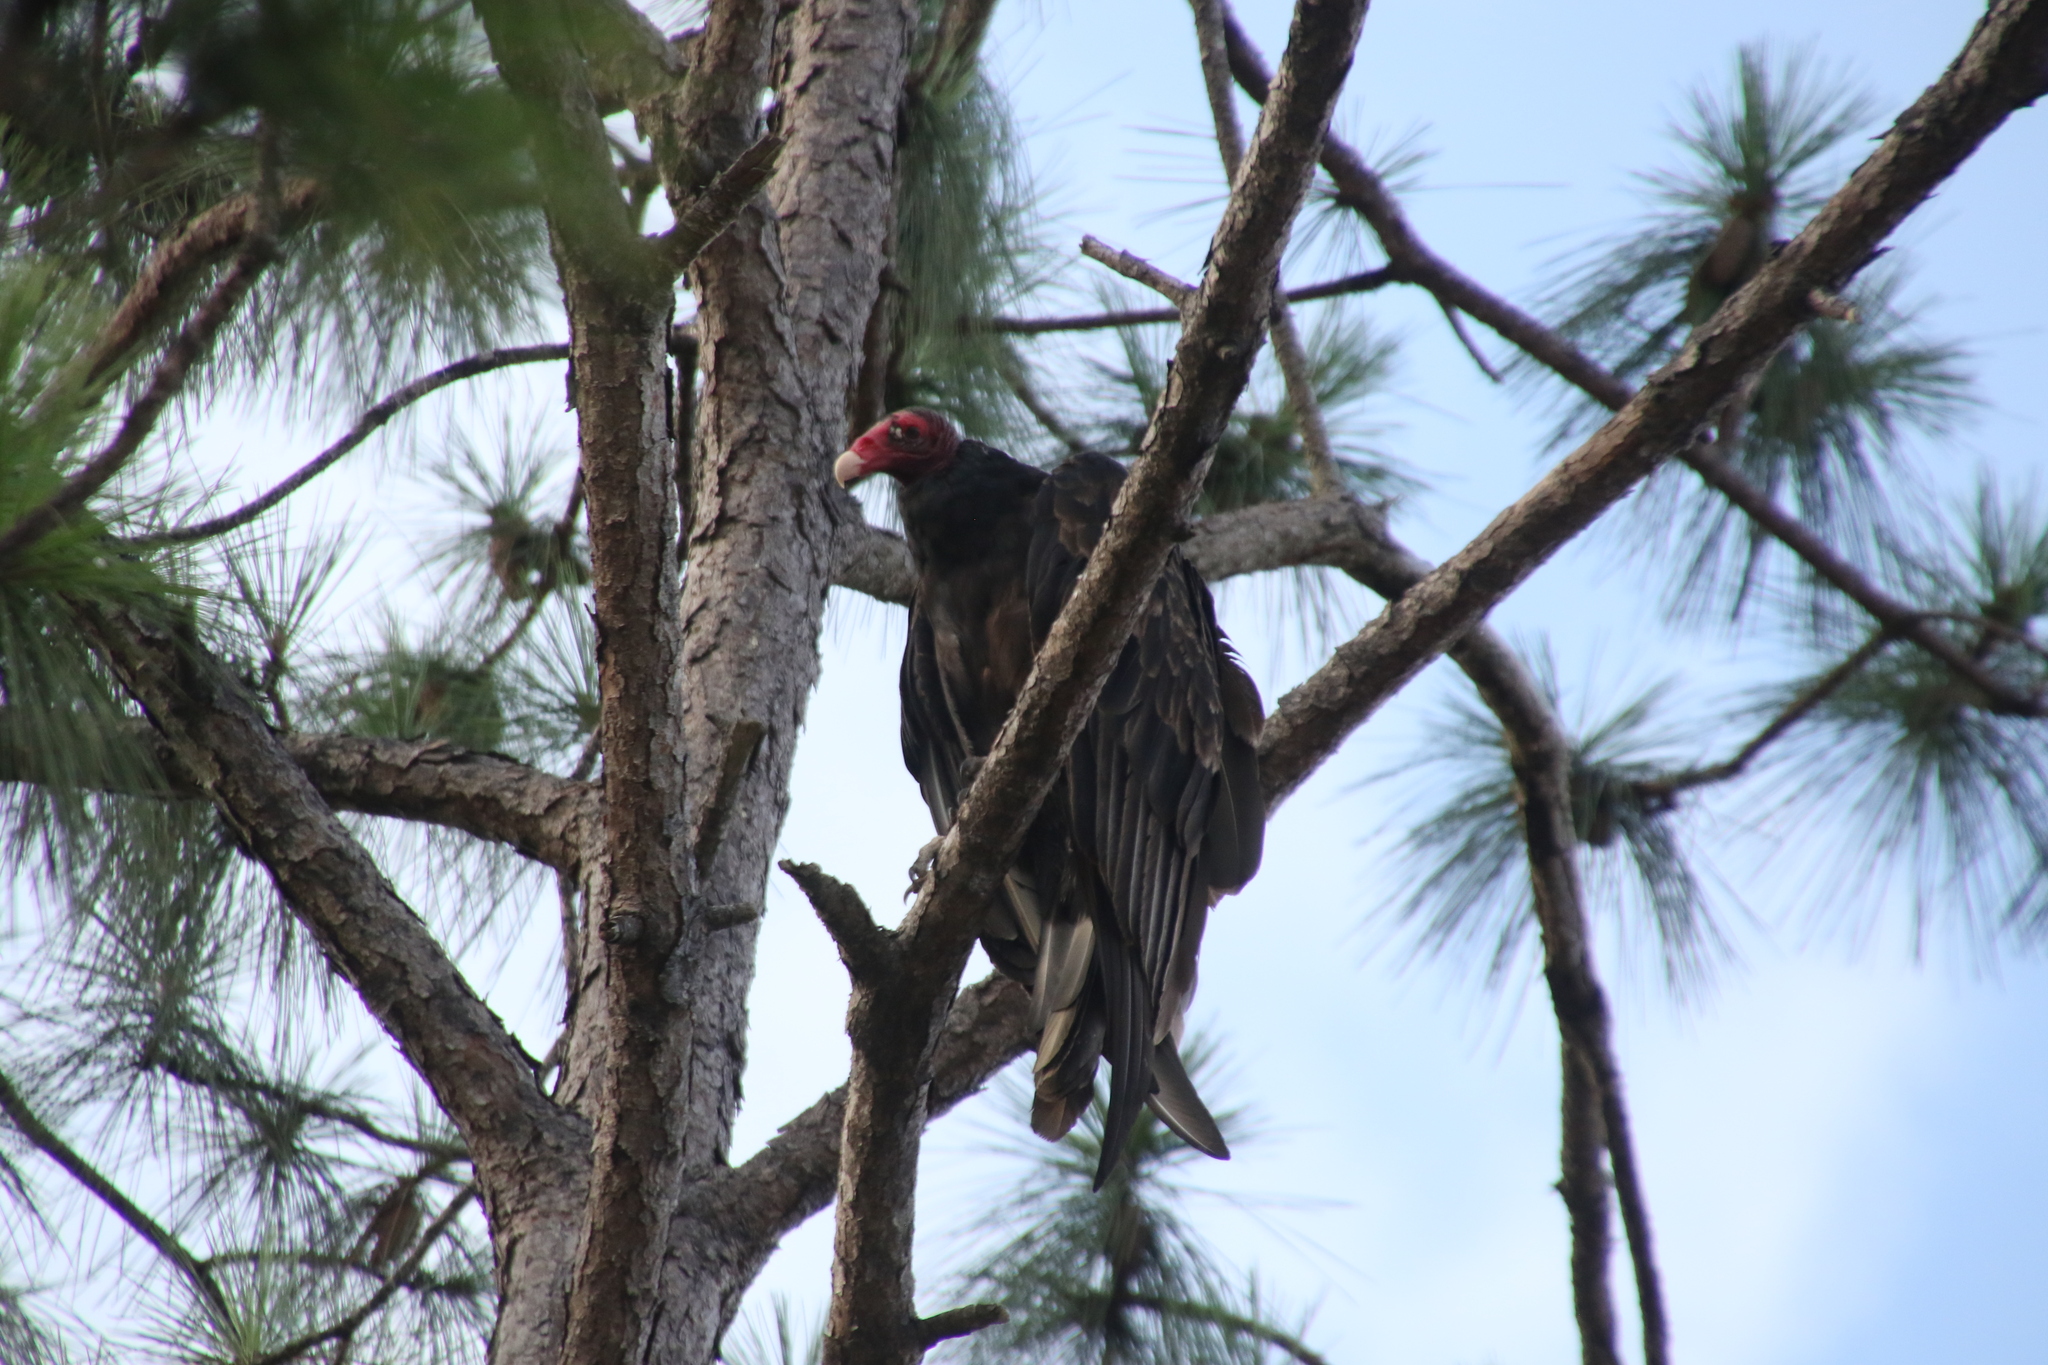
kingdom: Animalia
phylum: Chordata
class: Aves
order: Accipitriformes
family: Cathartidae
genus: Cathartes
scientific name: Cathartes aura
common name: Turkey vulture
